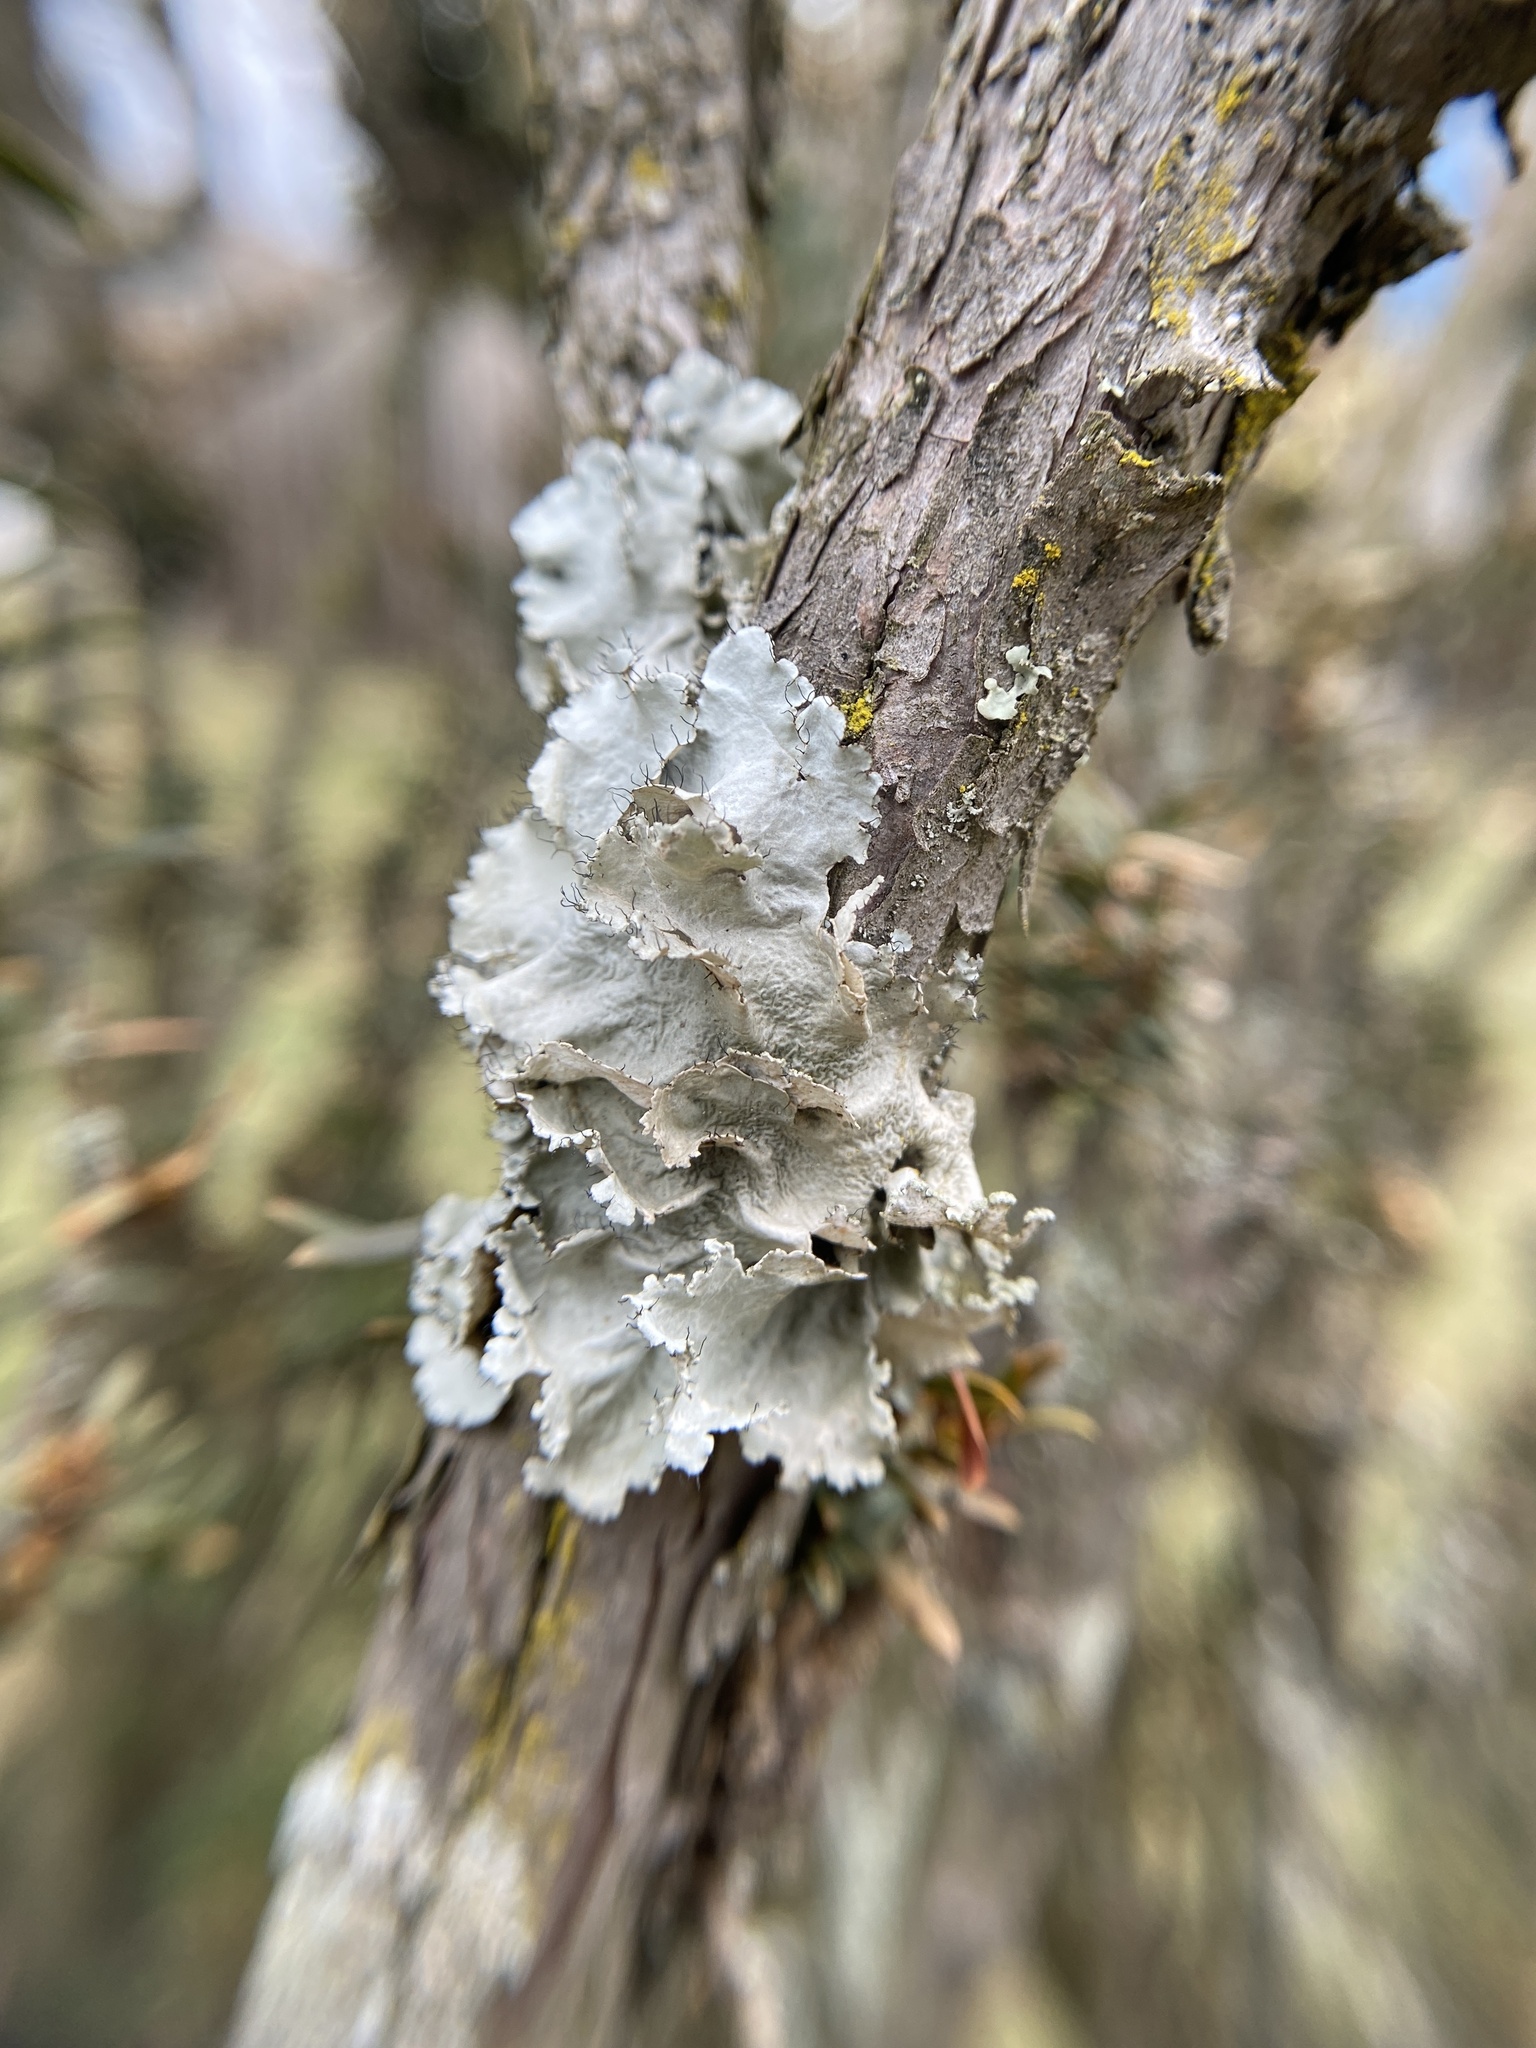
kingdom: Fungi
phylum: Ascomycota
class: Lecanoromycetes
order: Lecanorales
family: Parmeliaceae
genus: Parmotrema
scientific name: Parmotrema hypotropum
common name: Powdered ruffle lichen
